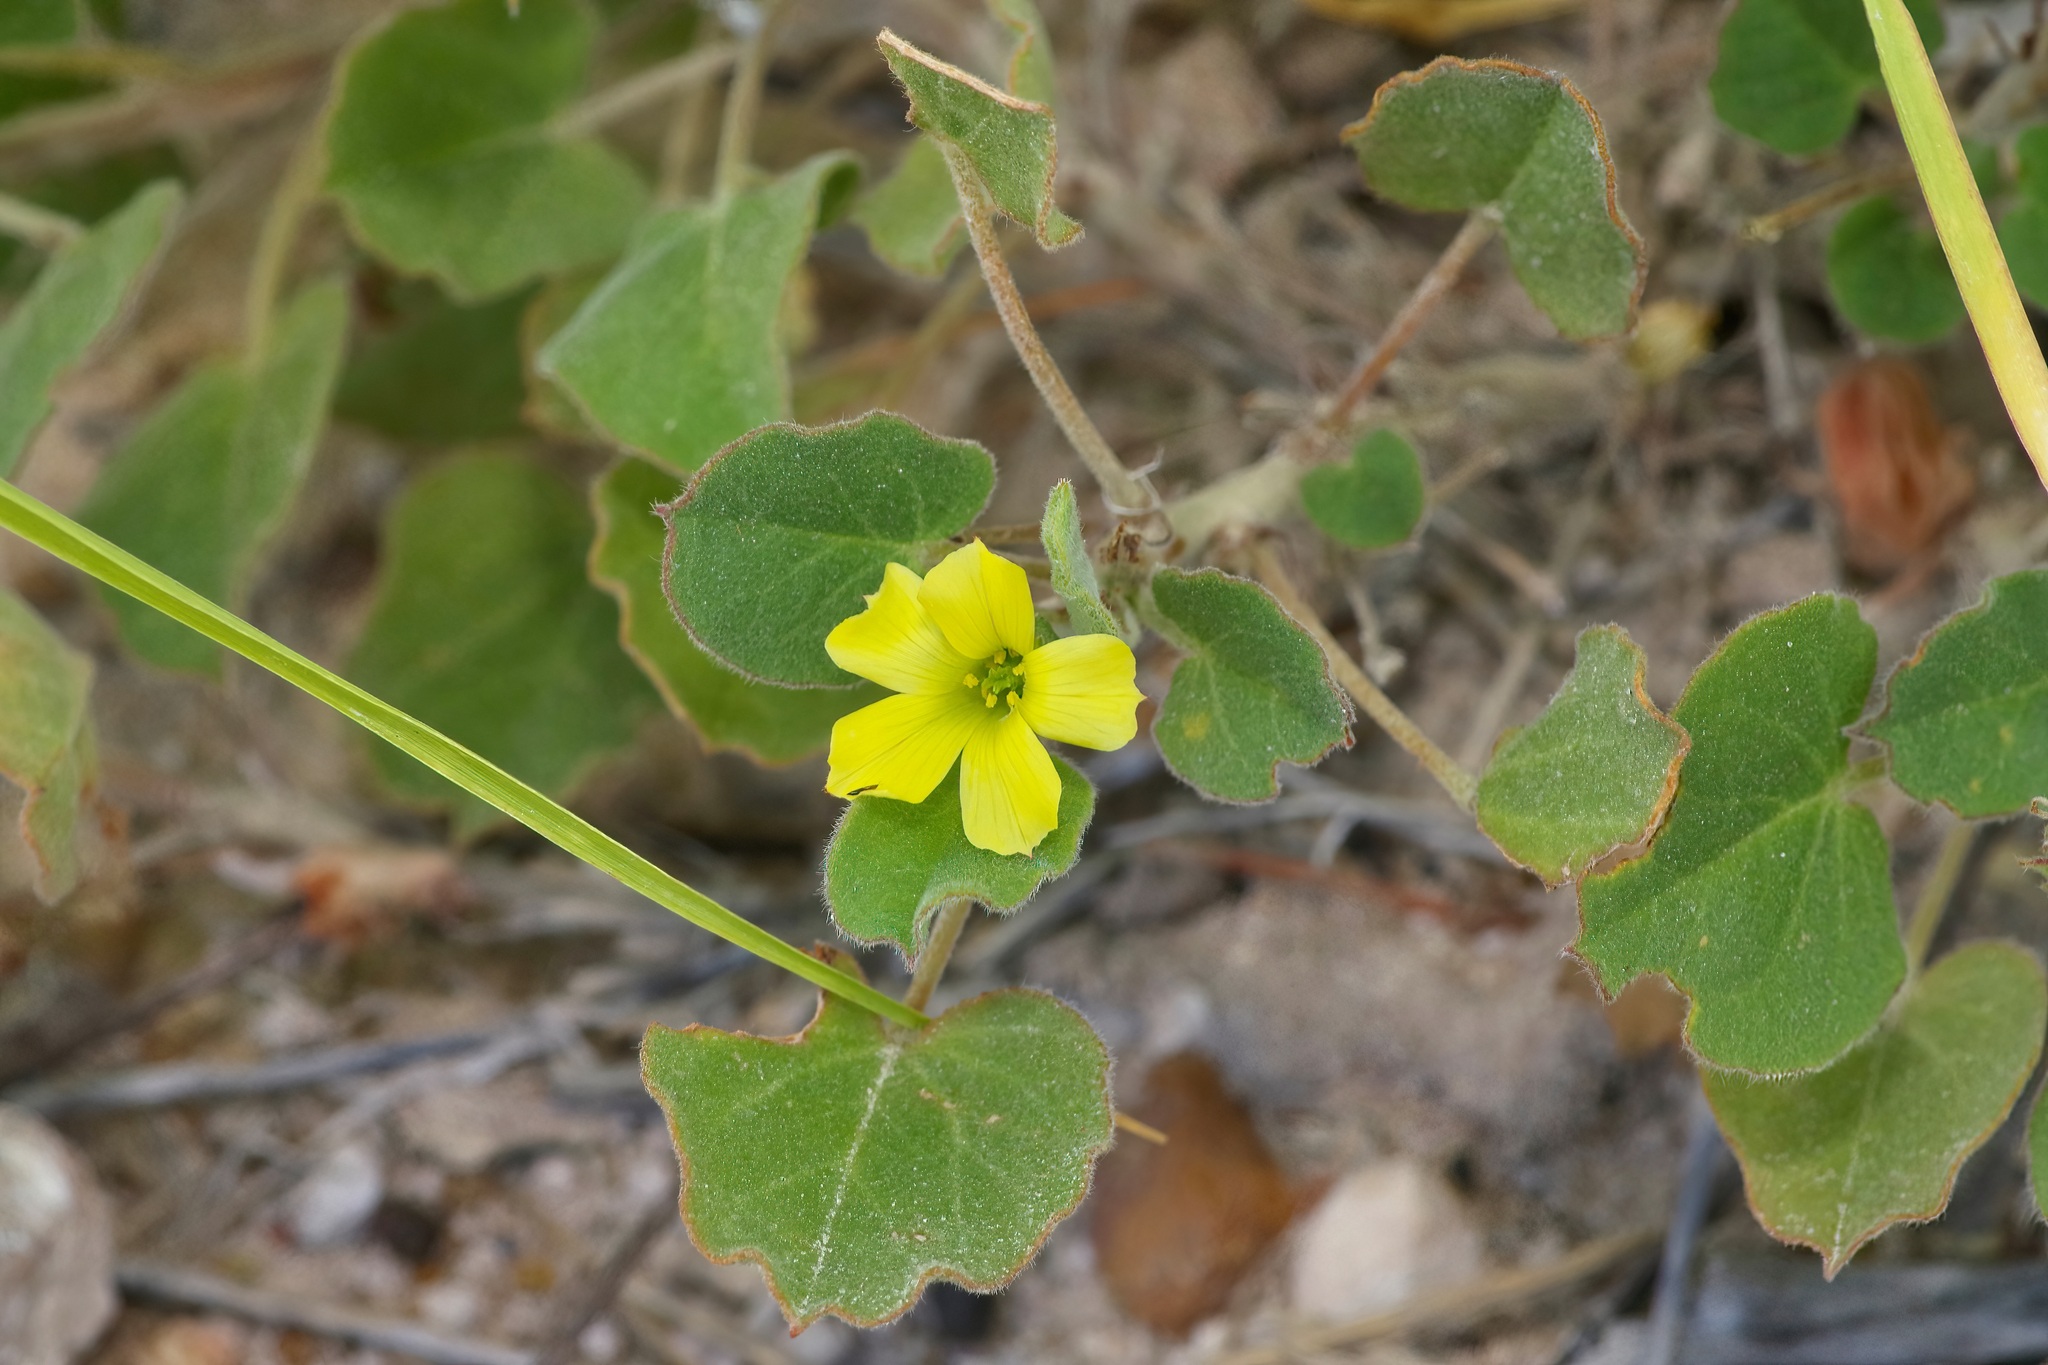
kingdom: Plantae
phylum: Tracheophyta
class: Magnoliopsida
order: Oxalidales
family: Oxalidaceae
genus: Oxalis
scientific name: Oxalis dichondrifolia
